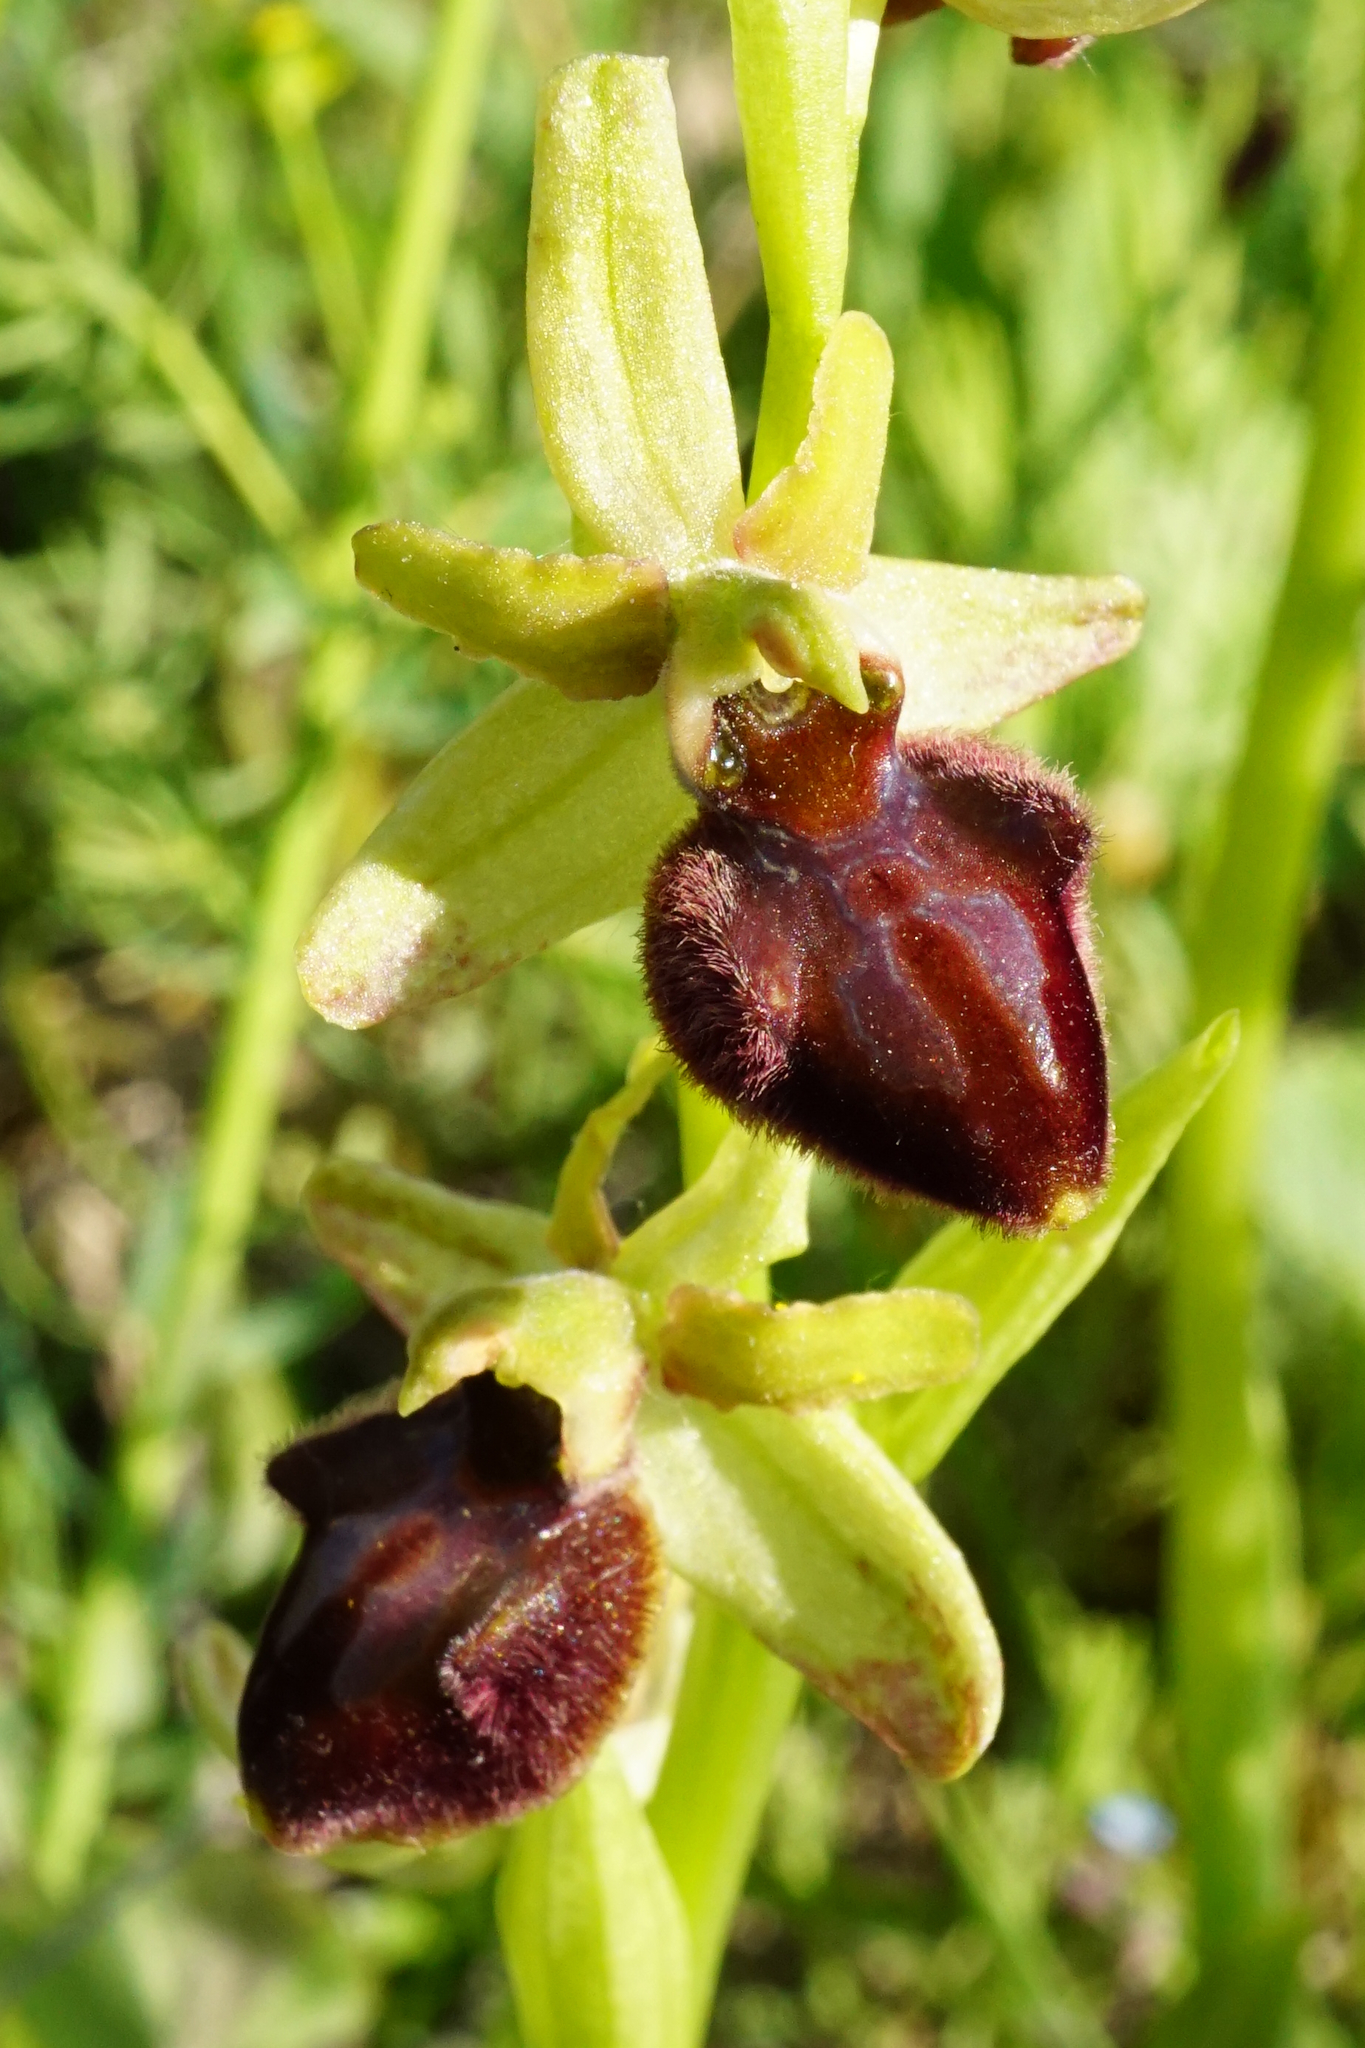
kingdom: Plantae
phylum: Tracheophyta
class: Liliopsida
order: Asparagales
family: Orchidaceae
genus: Ophrys
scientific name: Ophrys sphegodes
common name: Early spider-orchid
